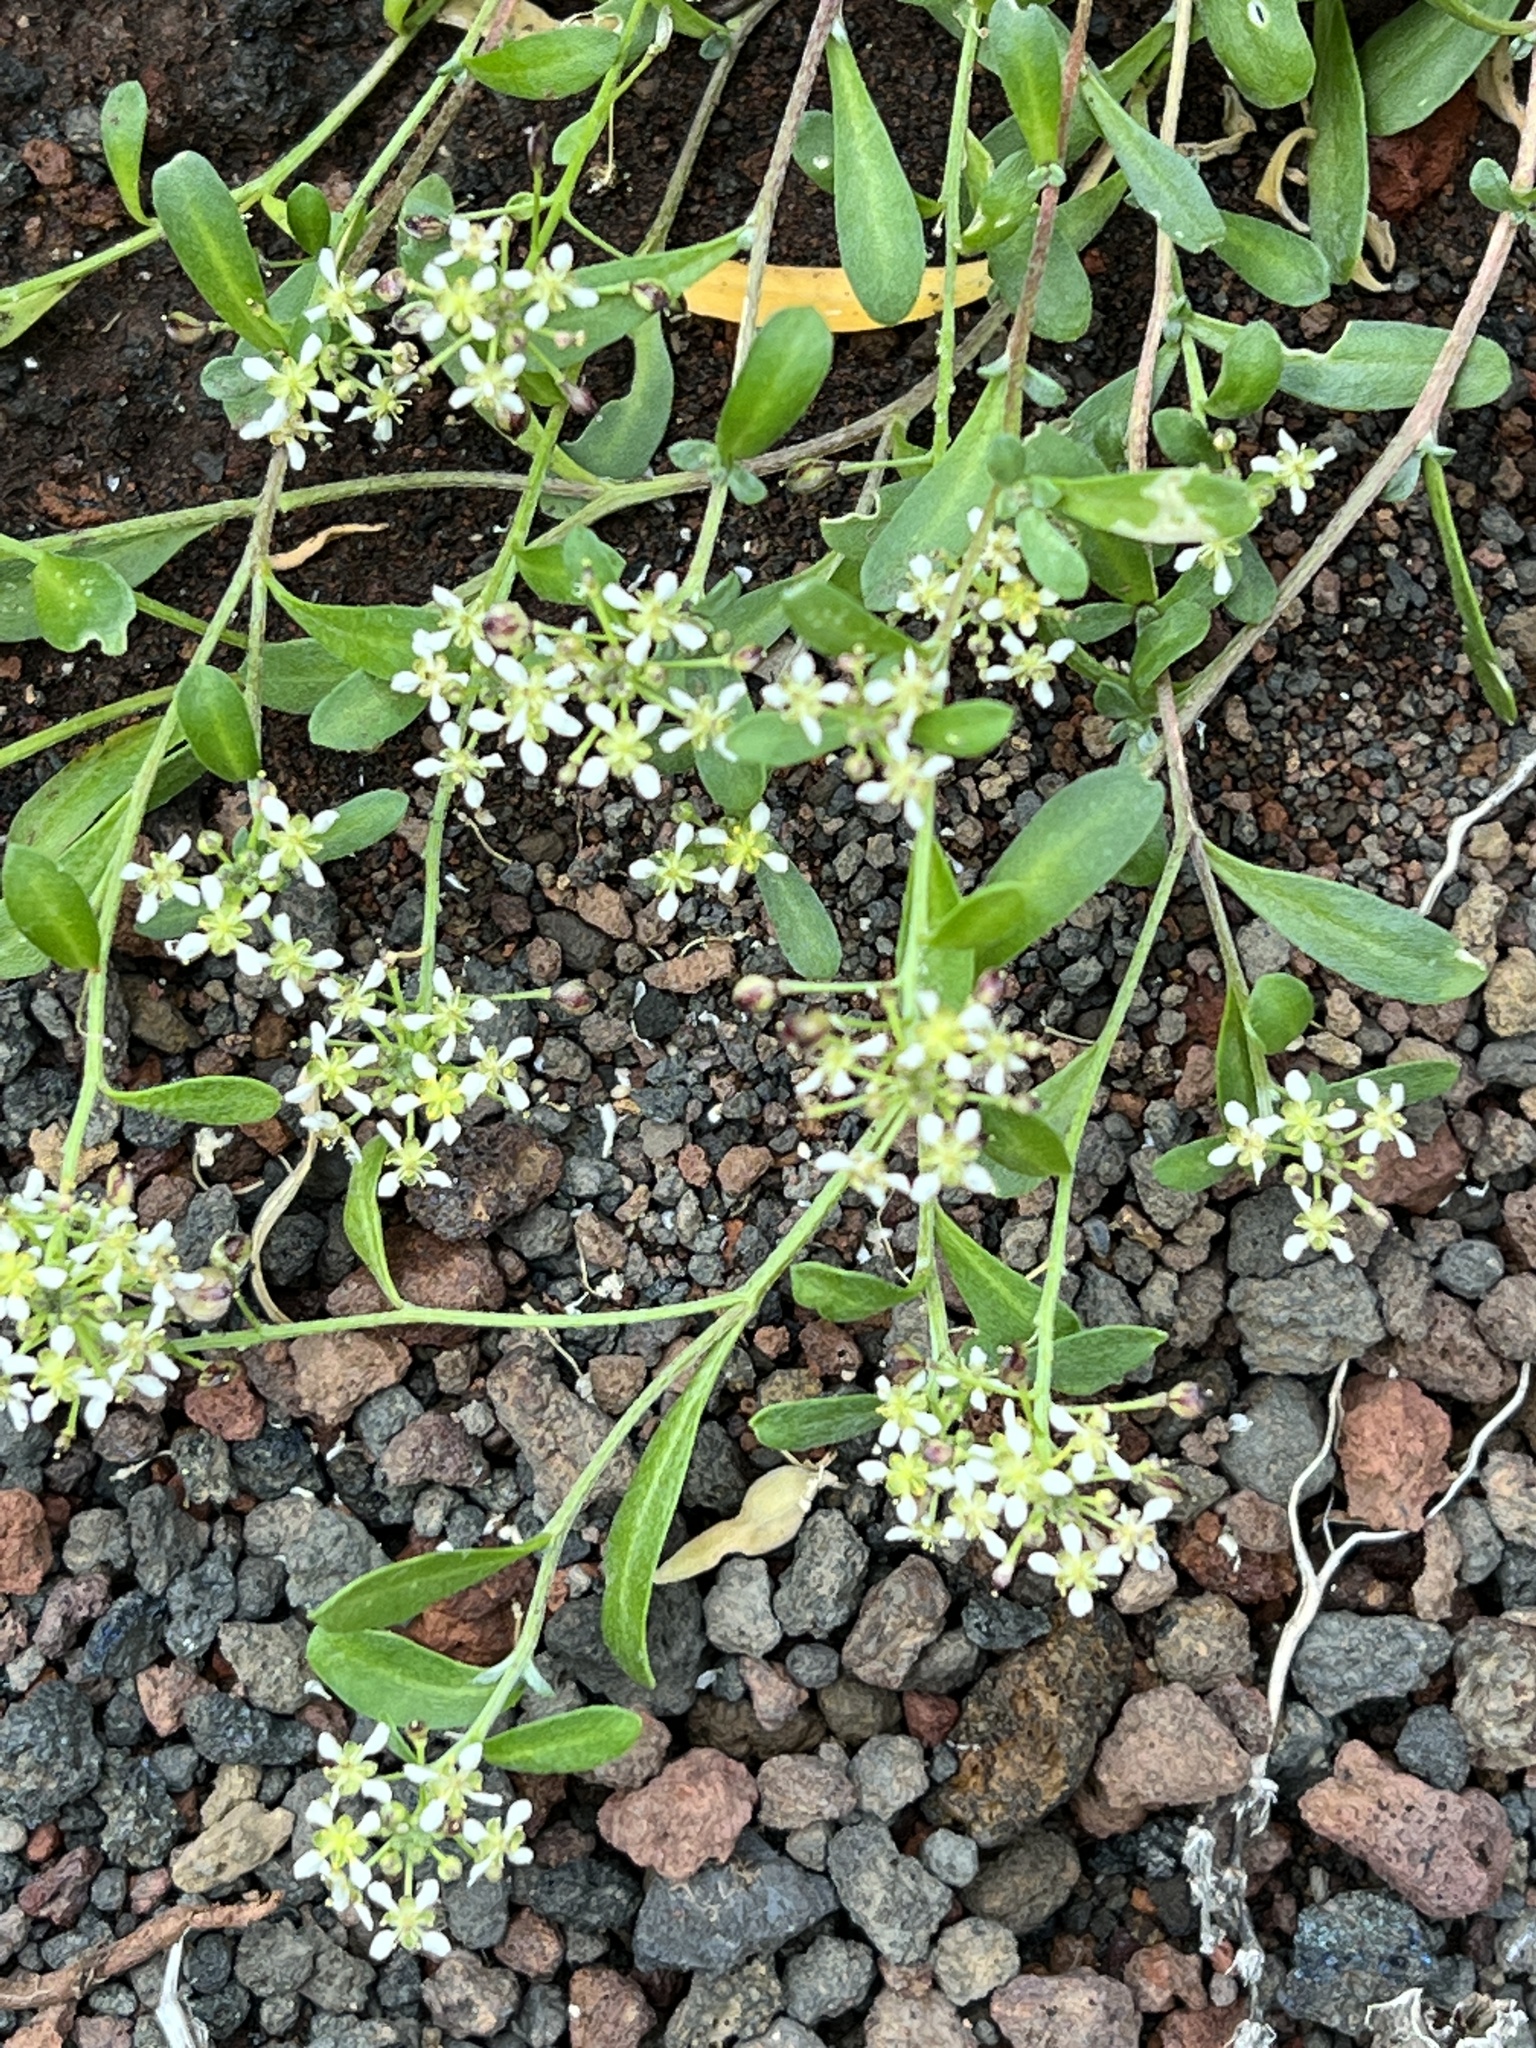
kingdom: Plantae
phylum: Tracheophyta
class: Magnoliopsida
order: Brassicales
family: Brassicaceae
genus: Lobularia
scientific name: Lobularia canariensis
